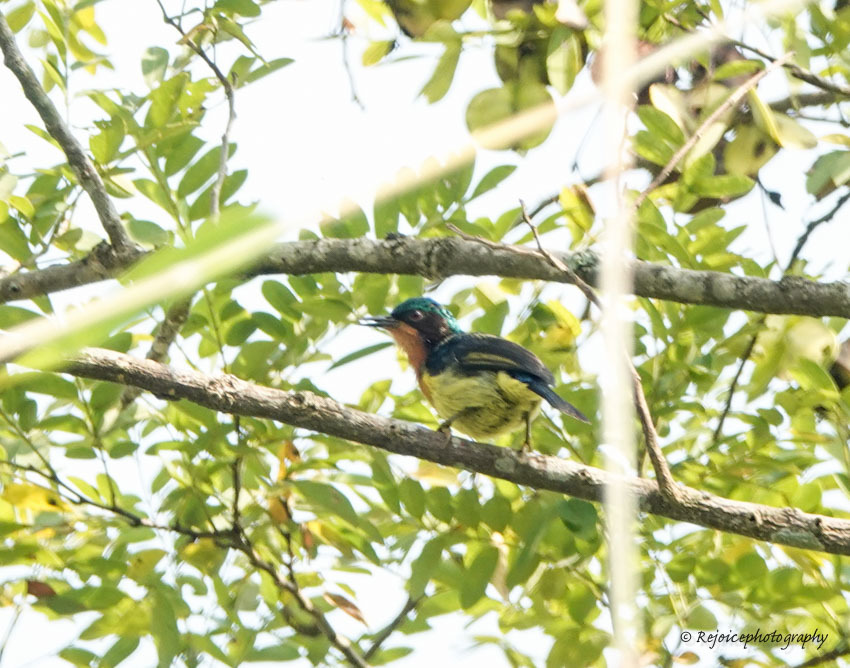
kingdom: Animalia
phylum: Chordata
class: Aves
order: Passeriformes
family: Nectariniidae
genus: Chalcoparia
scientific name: Chalcoparia singalensis
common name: Ruby-cheeked sunbird
